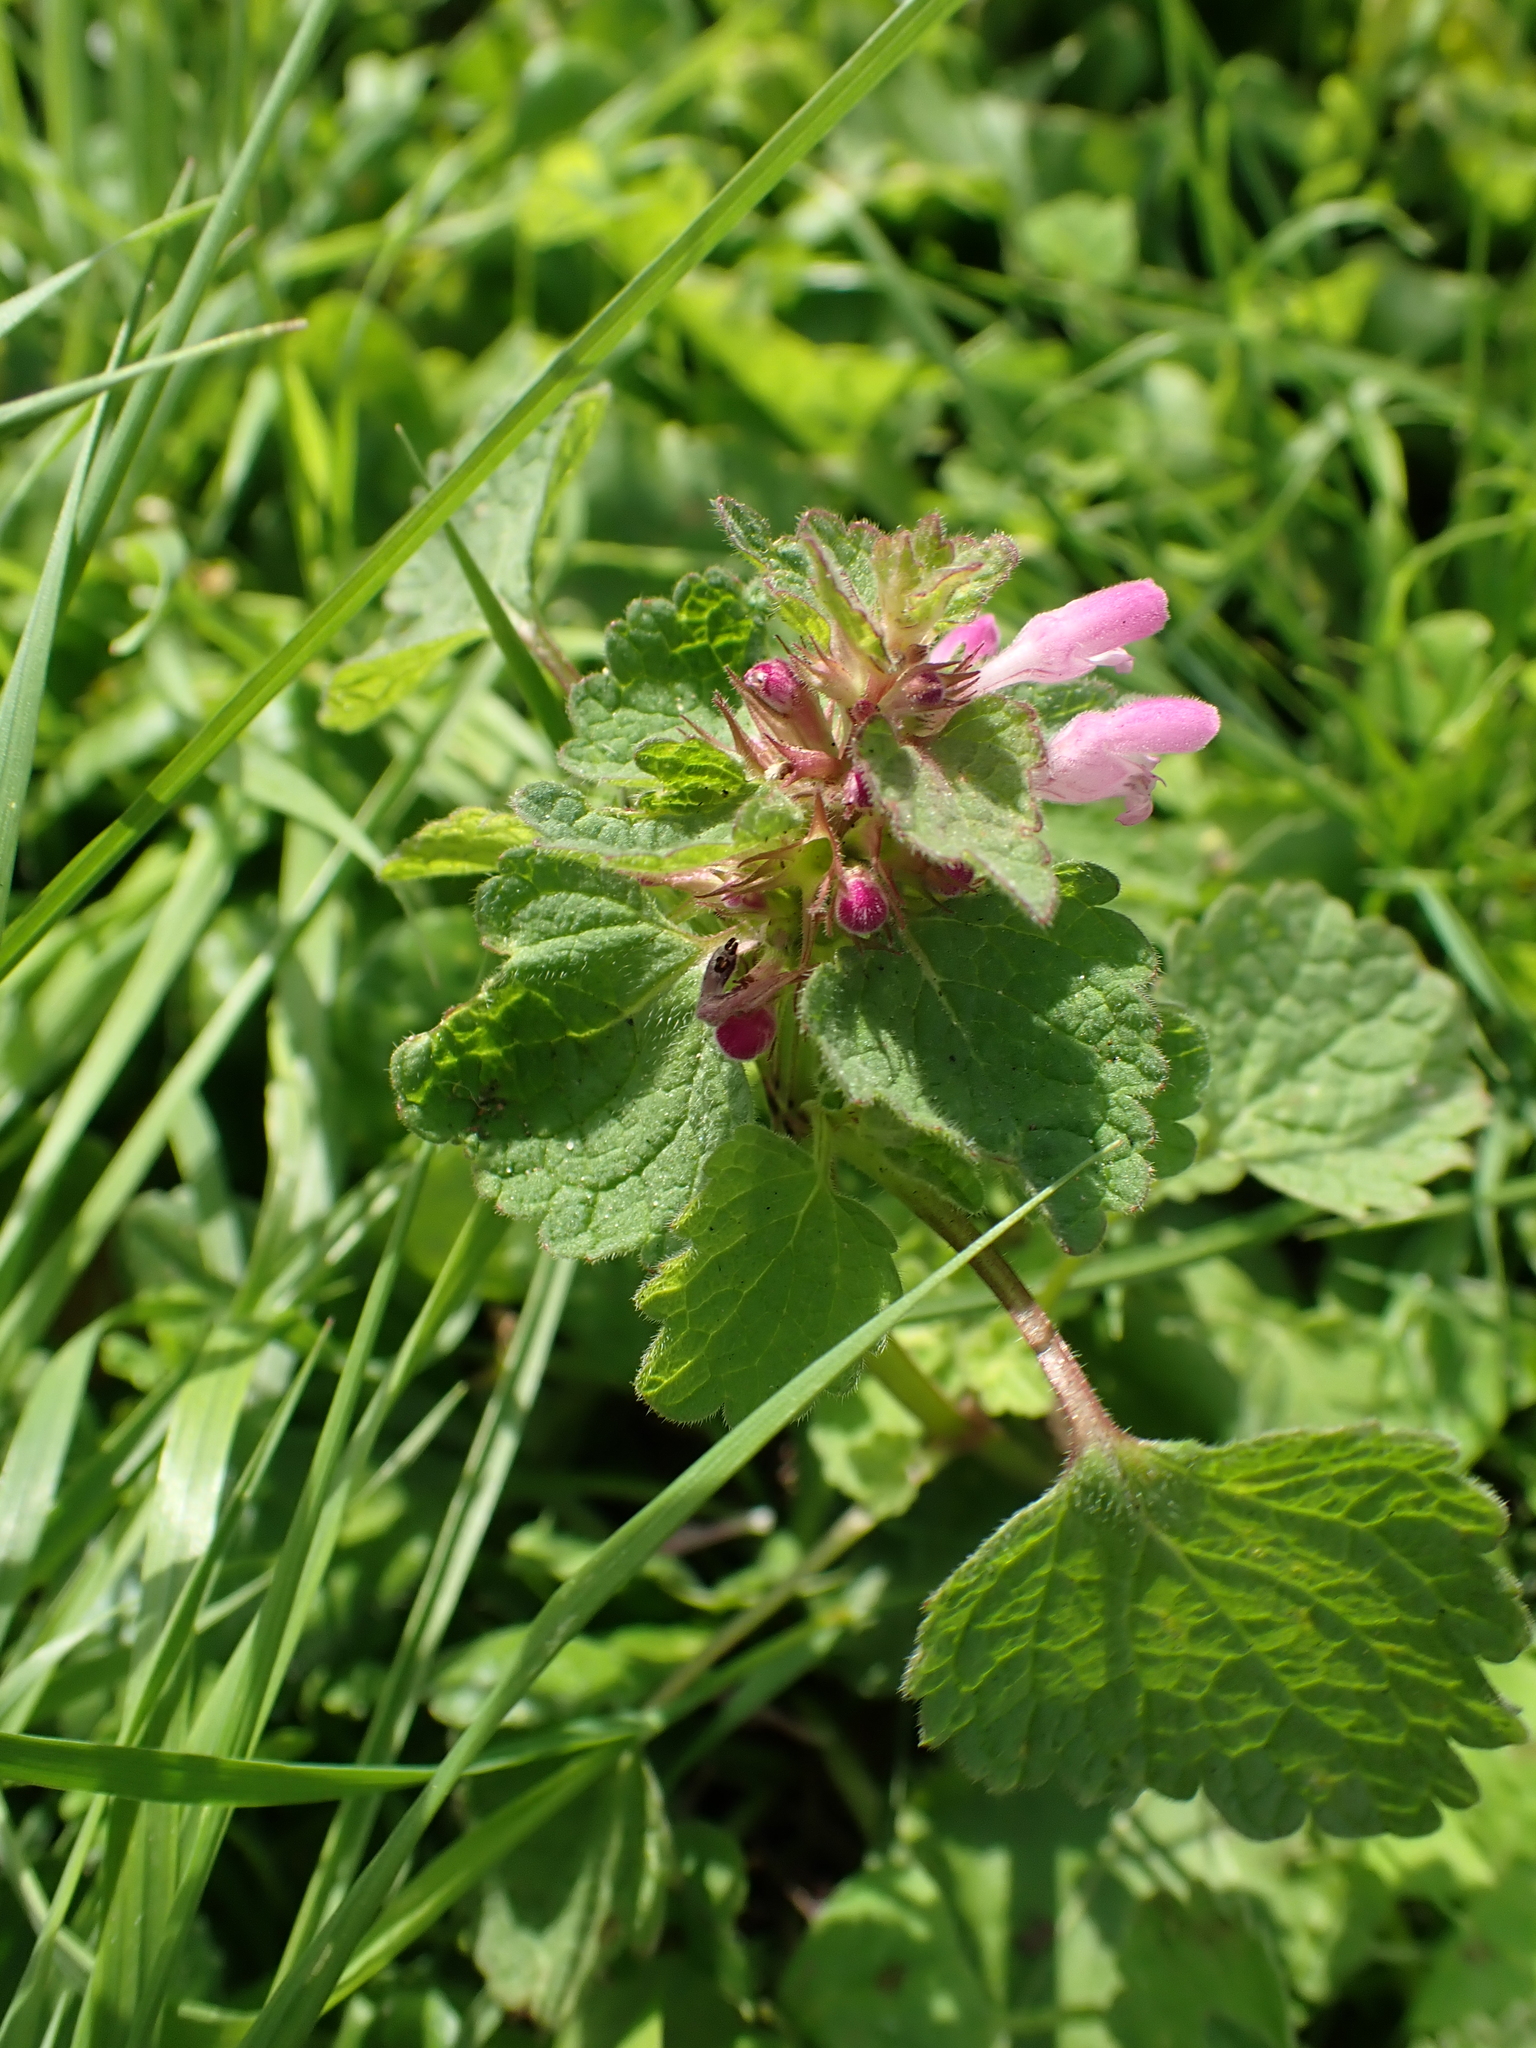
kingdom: Plantae
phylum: Tracheophyta
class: Magnoliopsida
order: Lamiales
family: Lamiaceae
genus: Lamium
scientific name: Lamium purpureum
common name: Red dead-nettle
